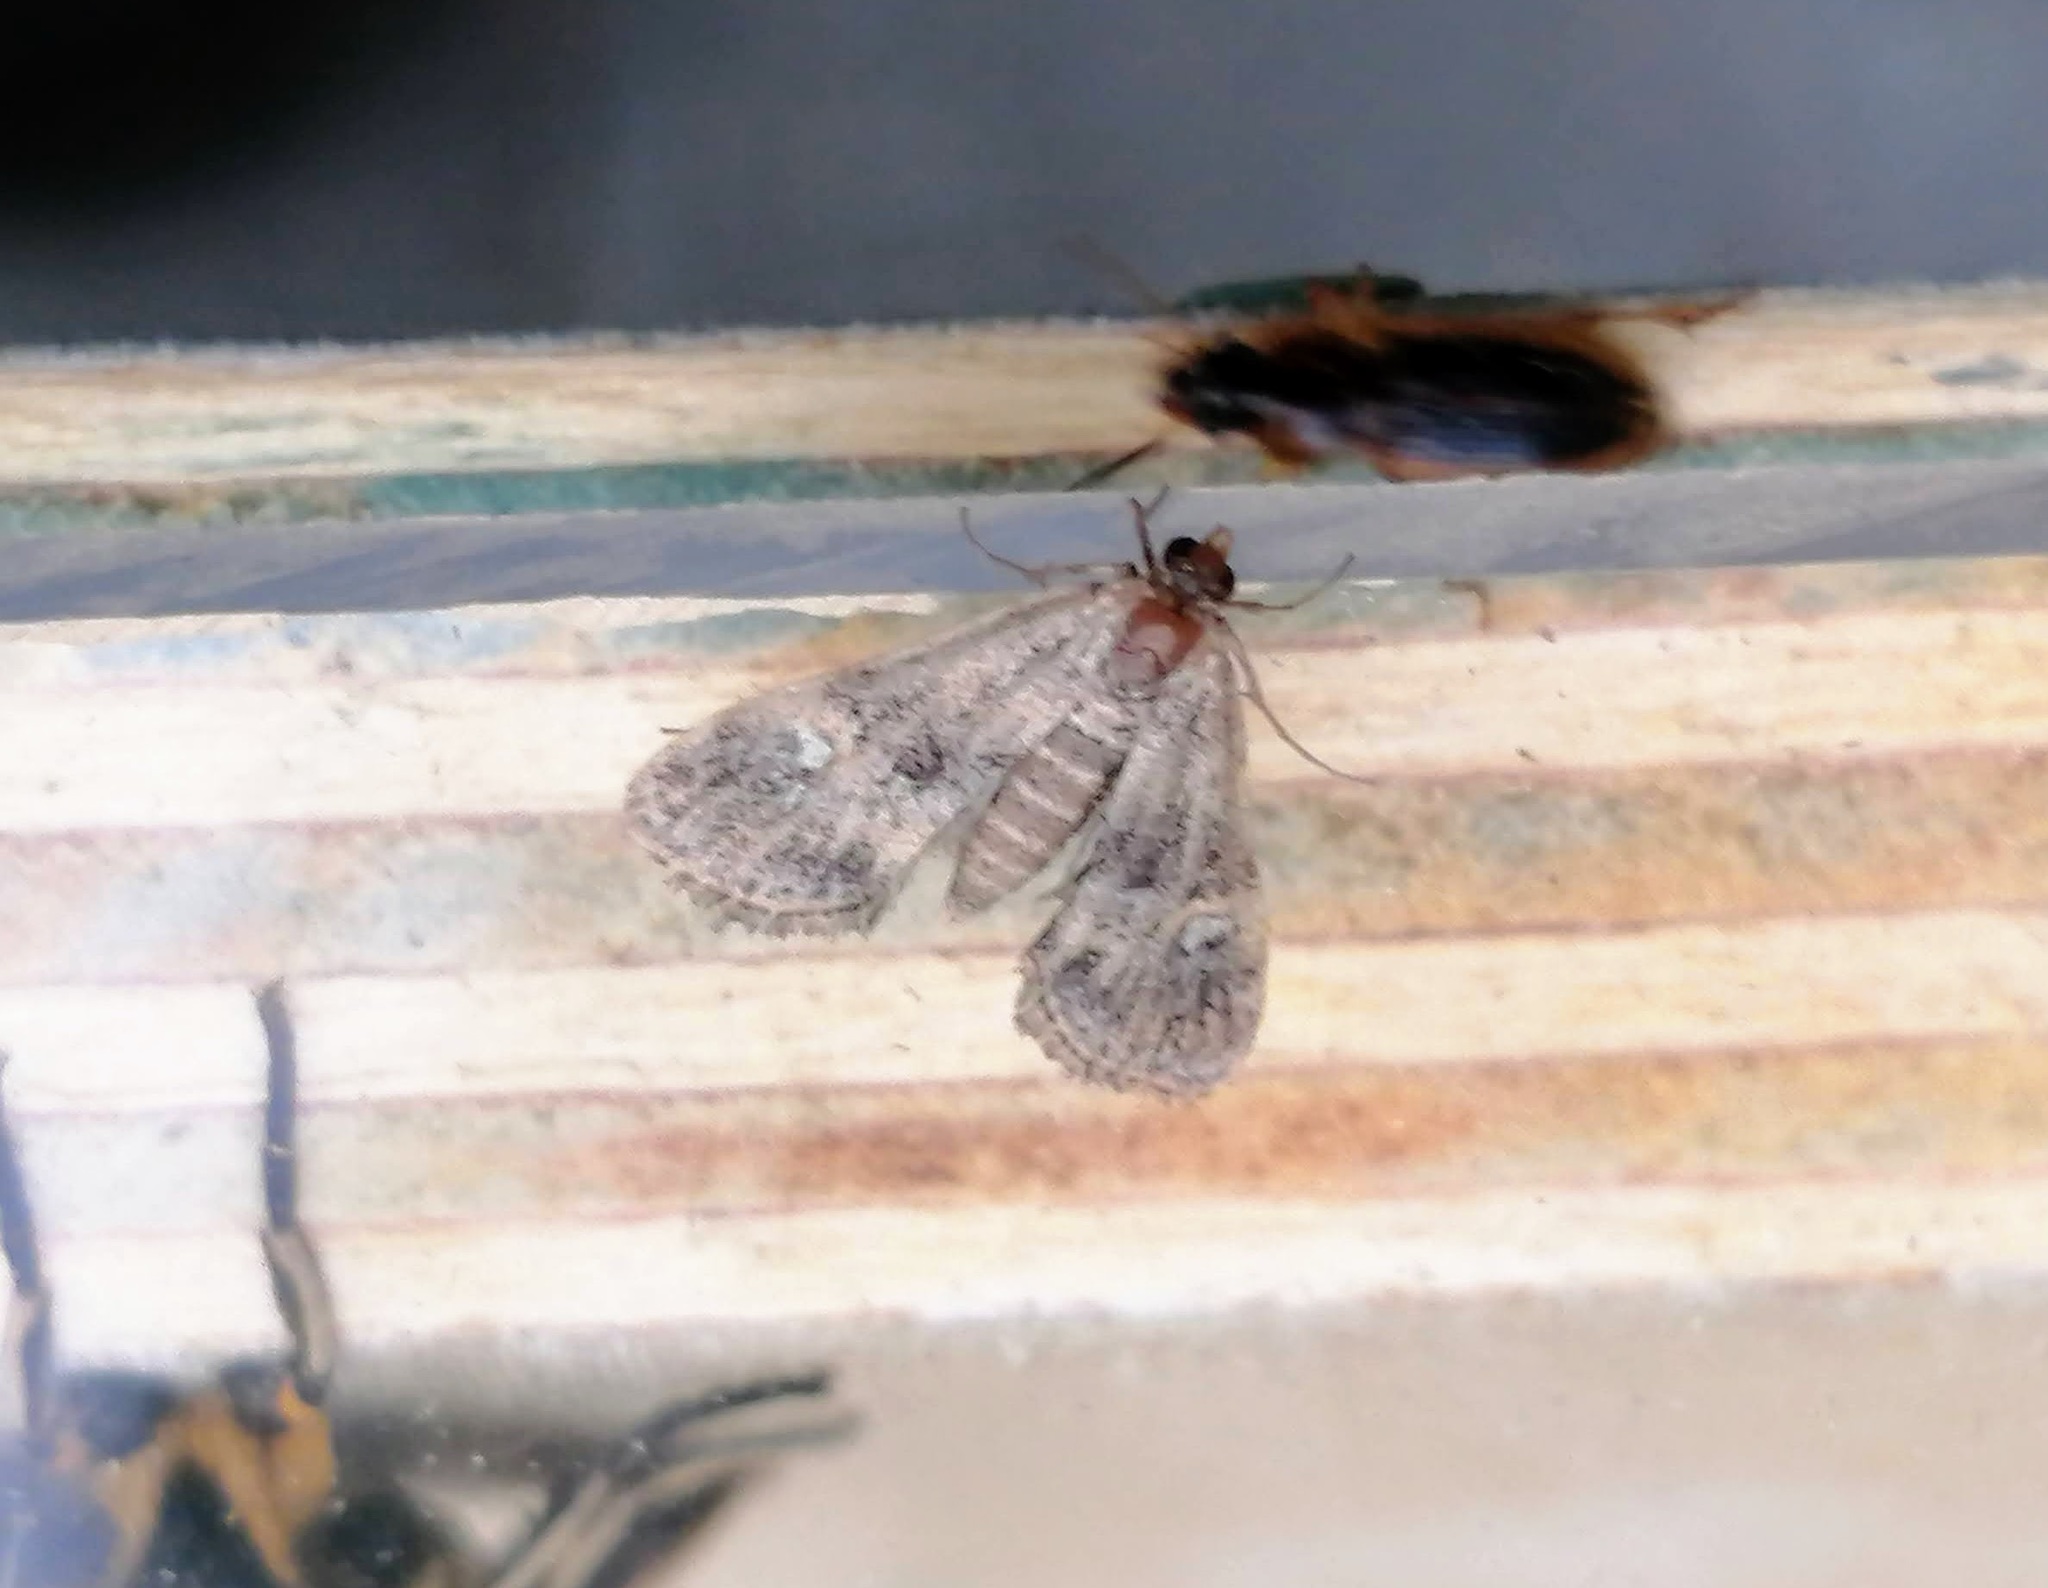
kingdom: Animalia
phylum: Arthropoda
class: Insecta
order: Lepidoptera
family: Crambidae
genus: Elophila
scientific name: Elophila obliteralis
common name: Waterlily leafcutter moth
